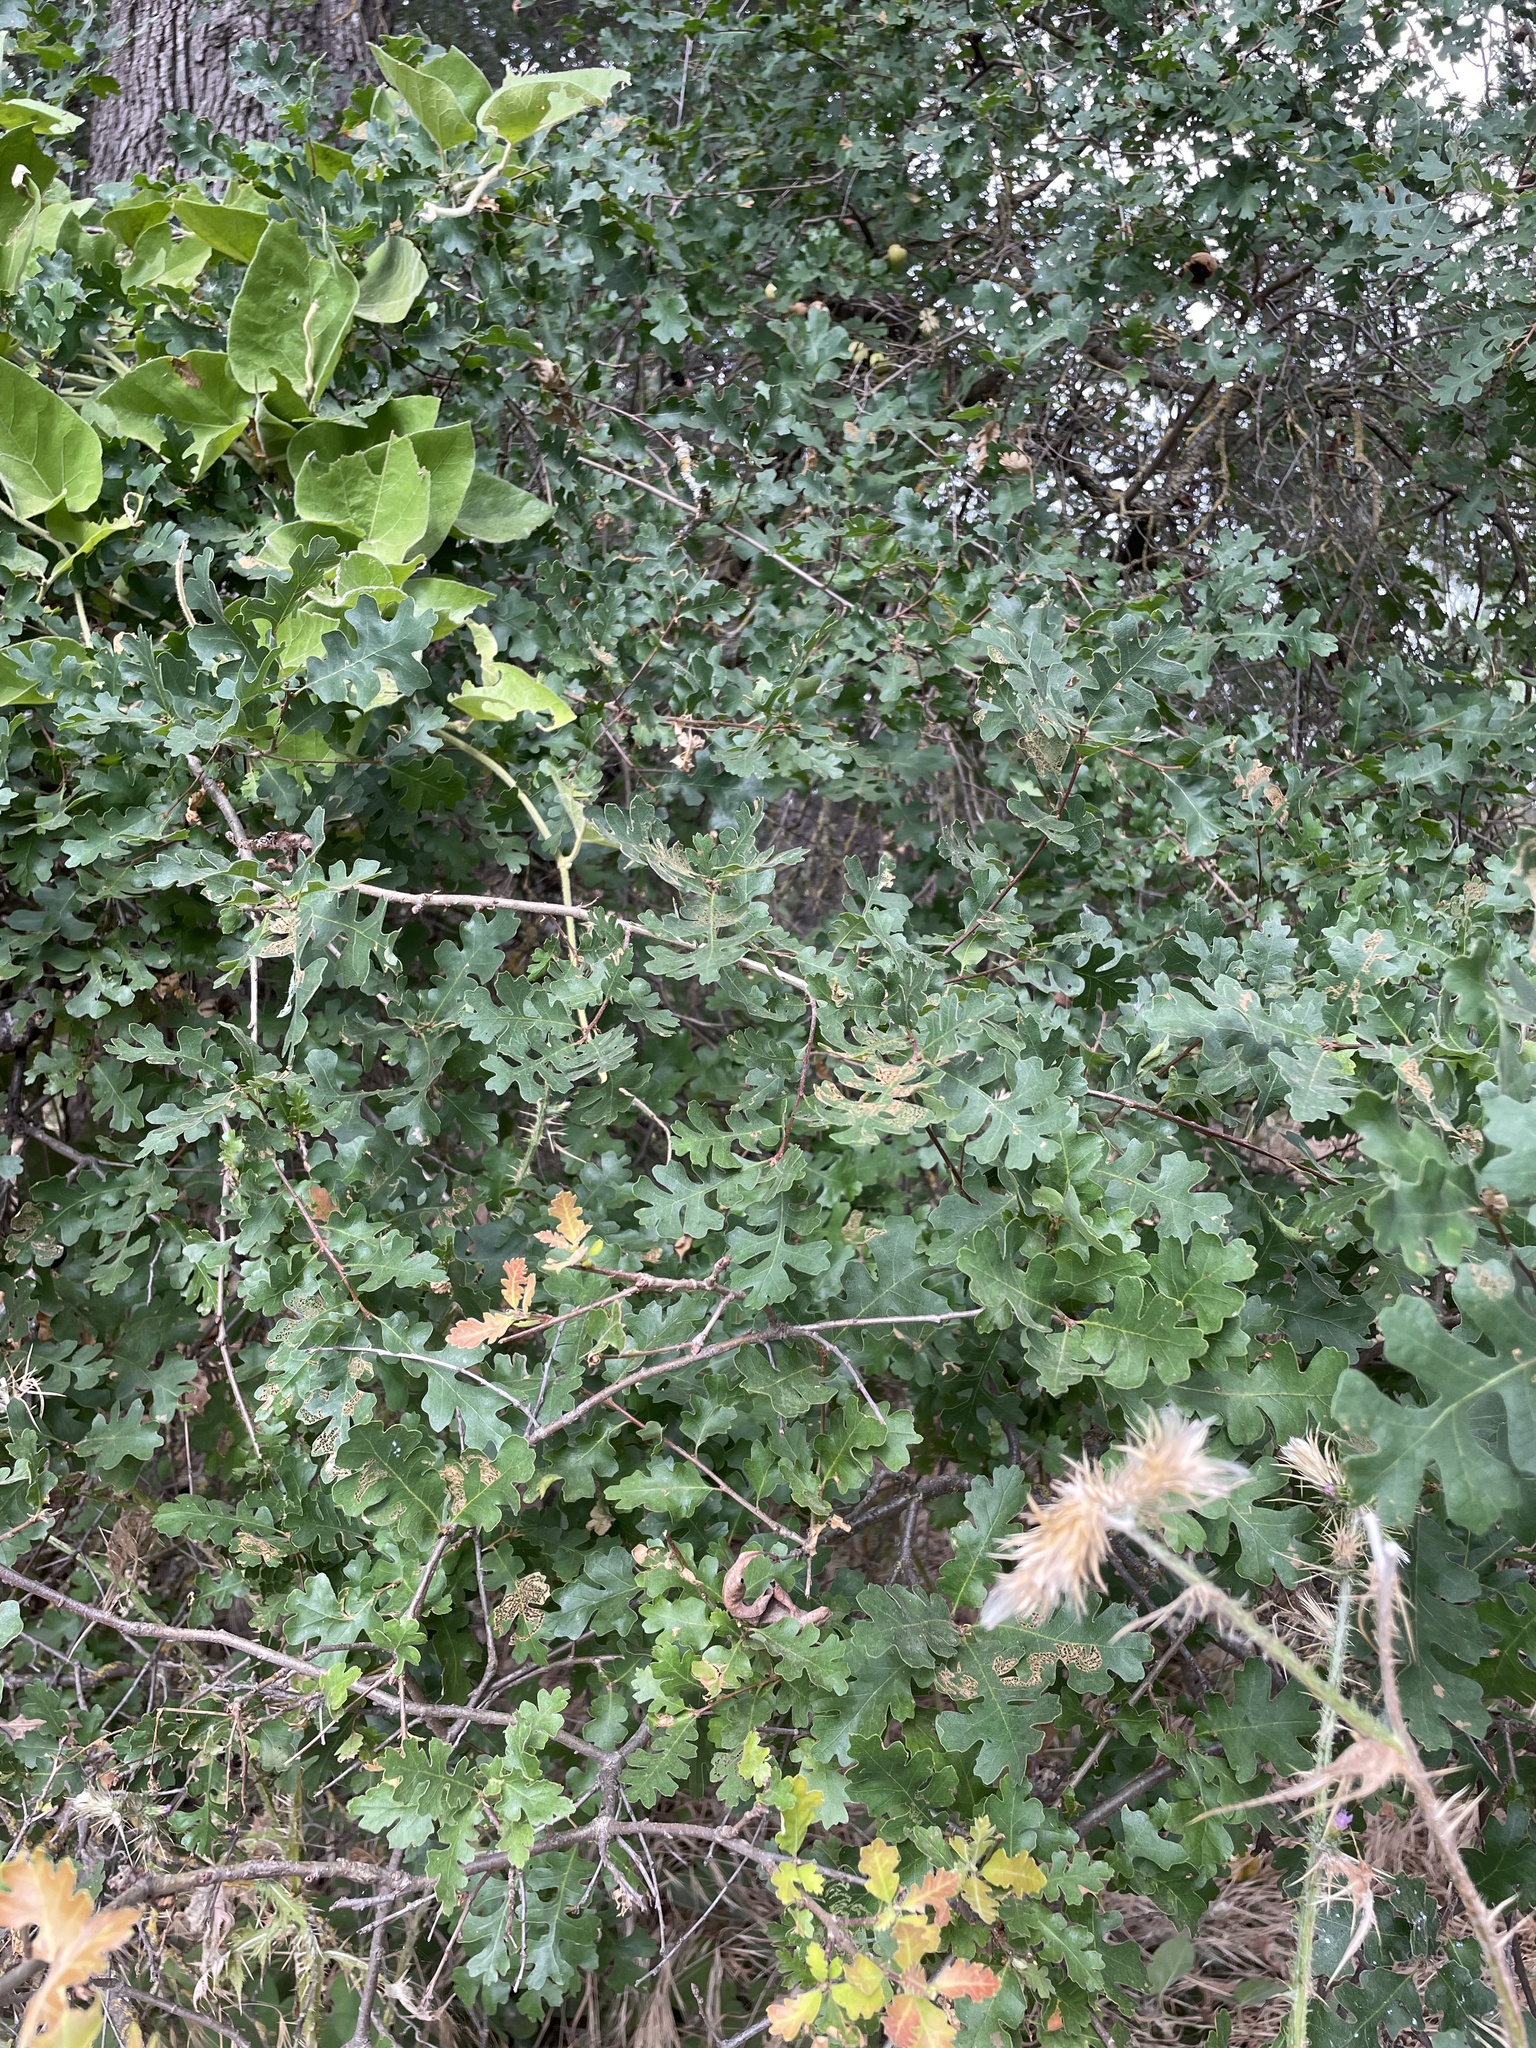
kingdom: Plantae
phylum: Tracheophyta
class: Magnoliopsida
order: Fagales
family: Fagaceae
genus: Quercus
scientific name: Quercus lobata
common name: Valley oak
